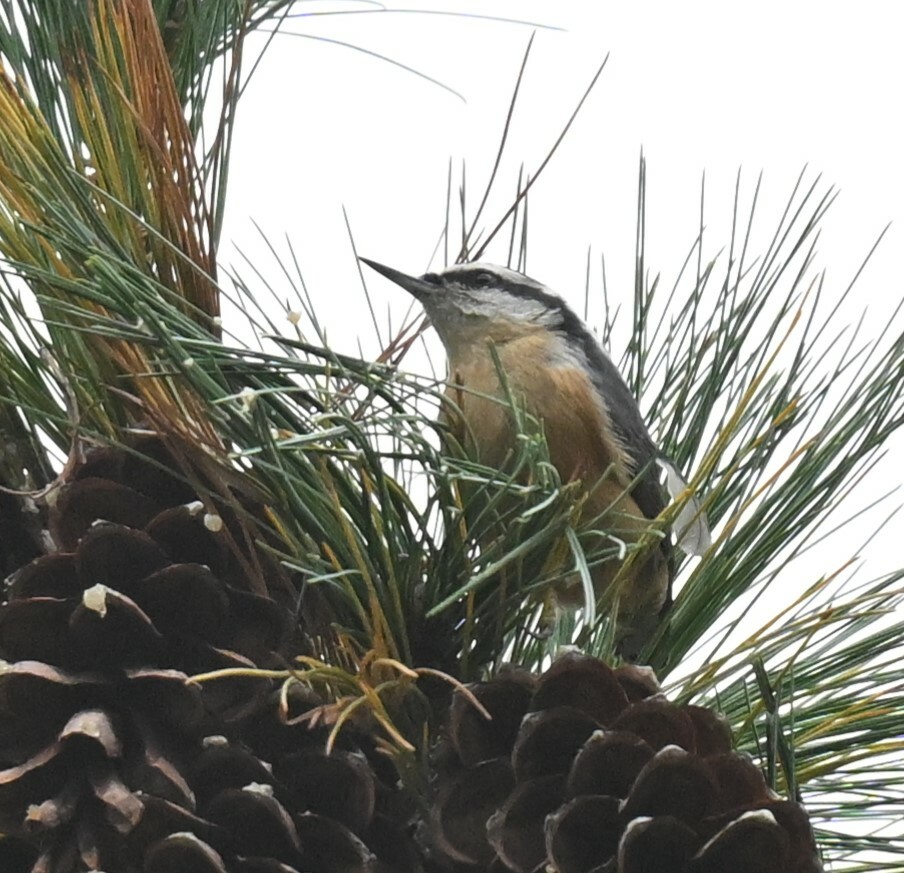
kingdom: Animalia
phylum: Chordata
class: Aves
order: Passeriformes
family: Sittidae
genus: Sitta
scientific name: Sitta canadensis
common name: Red-breasted nuthatch
